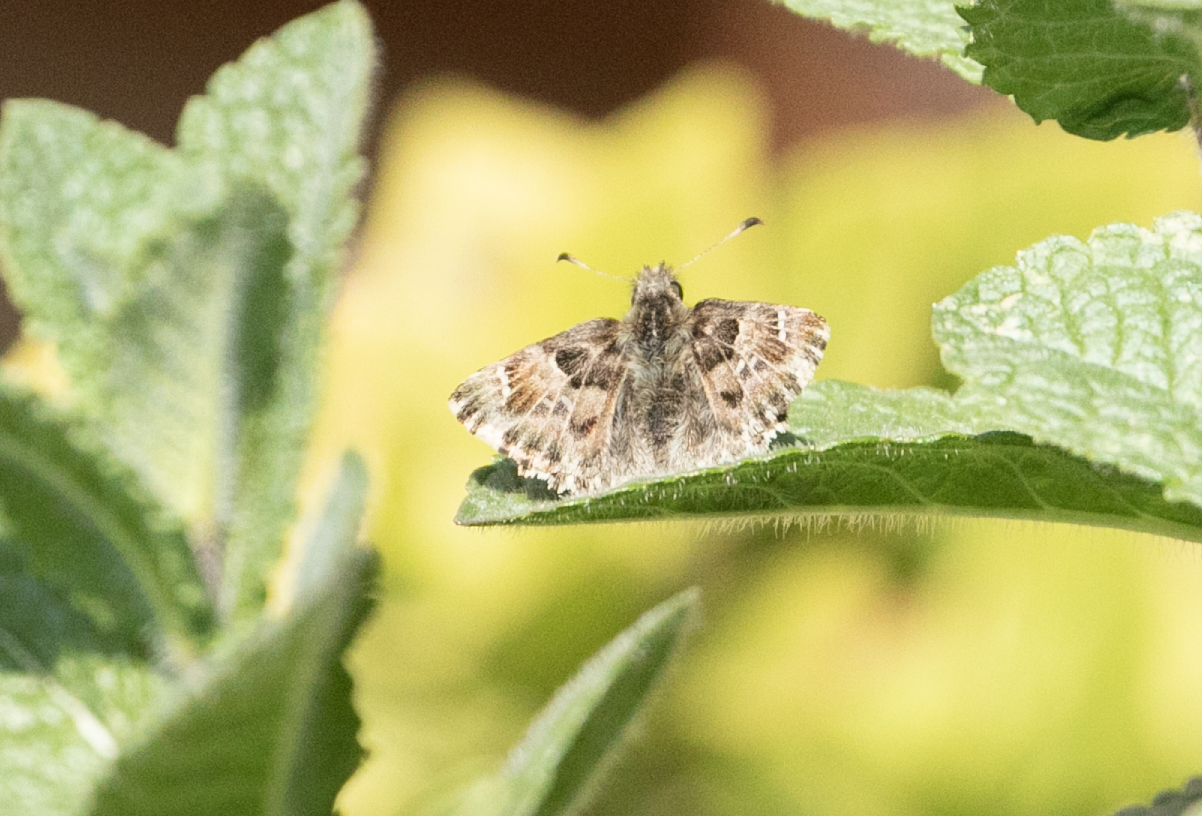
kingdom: Animalia
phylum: Arthropoda
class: Insecta
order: Lepidoptera
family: Hesperiidae
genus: Carcharodus
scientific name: Carcharodus alceae
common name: Mallow skipper
